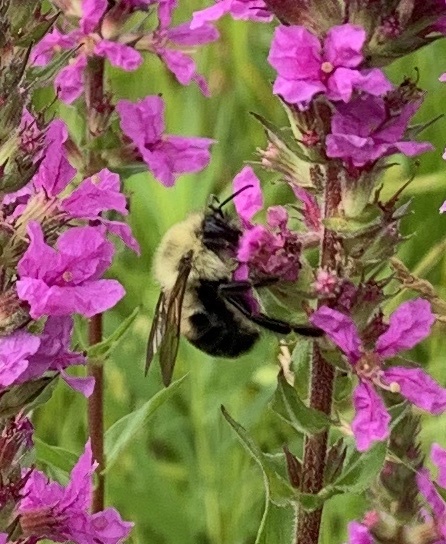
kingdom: Animalia
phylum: Arthropoda
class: Insecta
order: Hymenoptera
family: Apidae
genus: Bombus
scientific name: Bombus bimaculatus
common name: Two-spotted bumble bee
